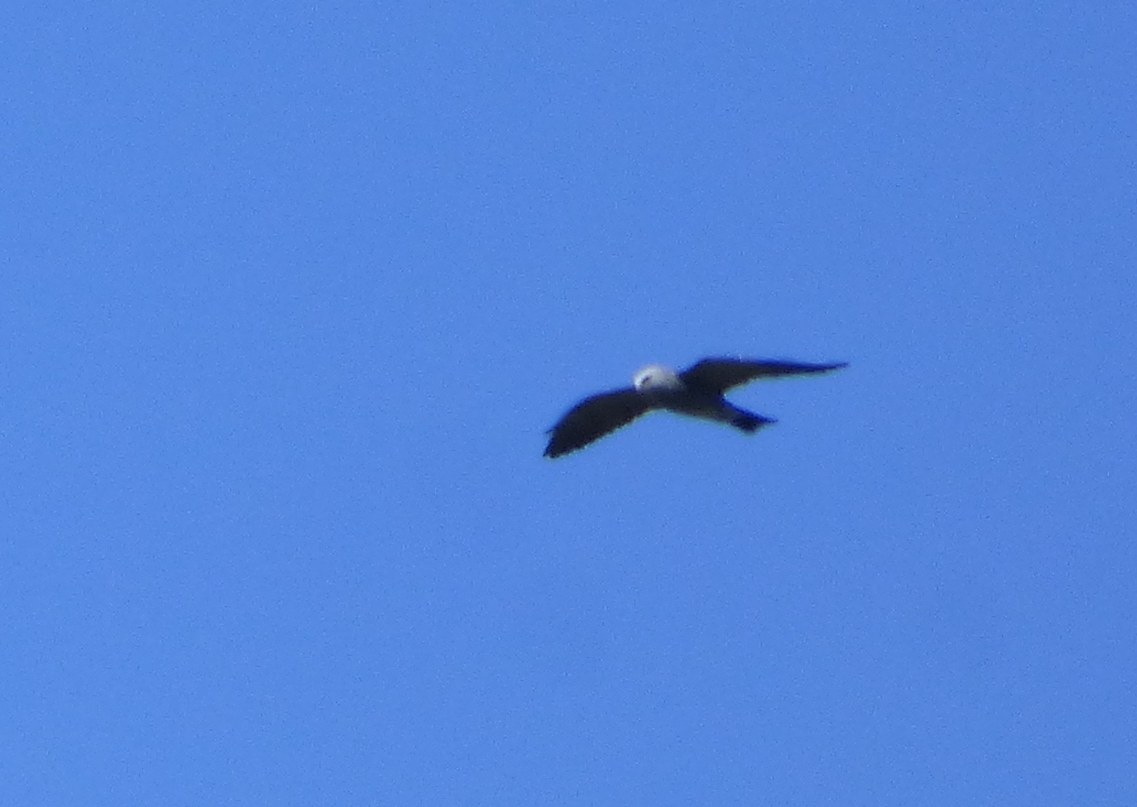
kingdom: Animalia
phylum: Chordata
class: Aves
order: Accipitriformes
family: Accipitridae
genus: Ictinia
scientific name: Ictinia mississippiensis
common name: Mississippi kite
